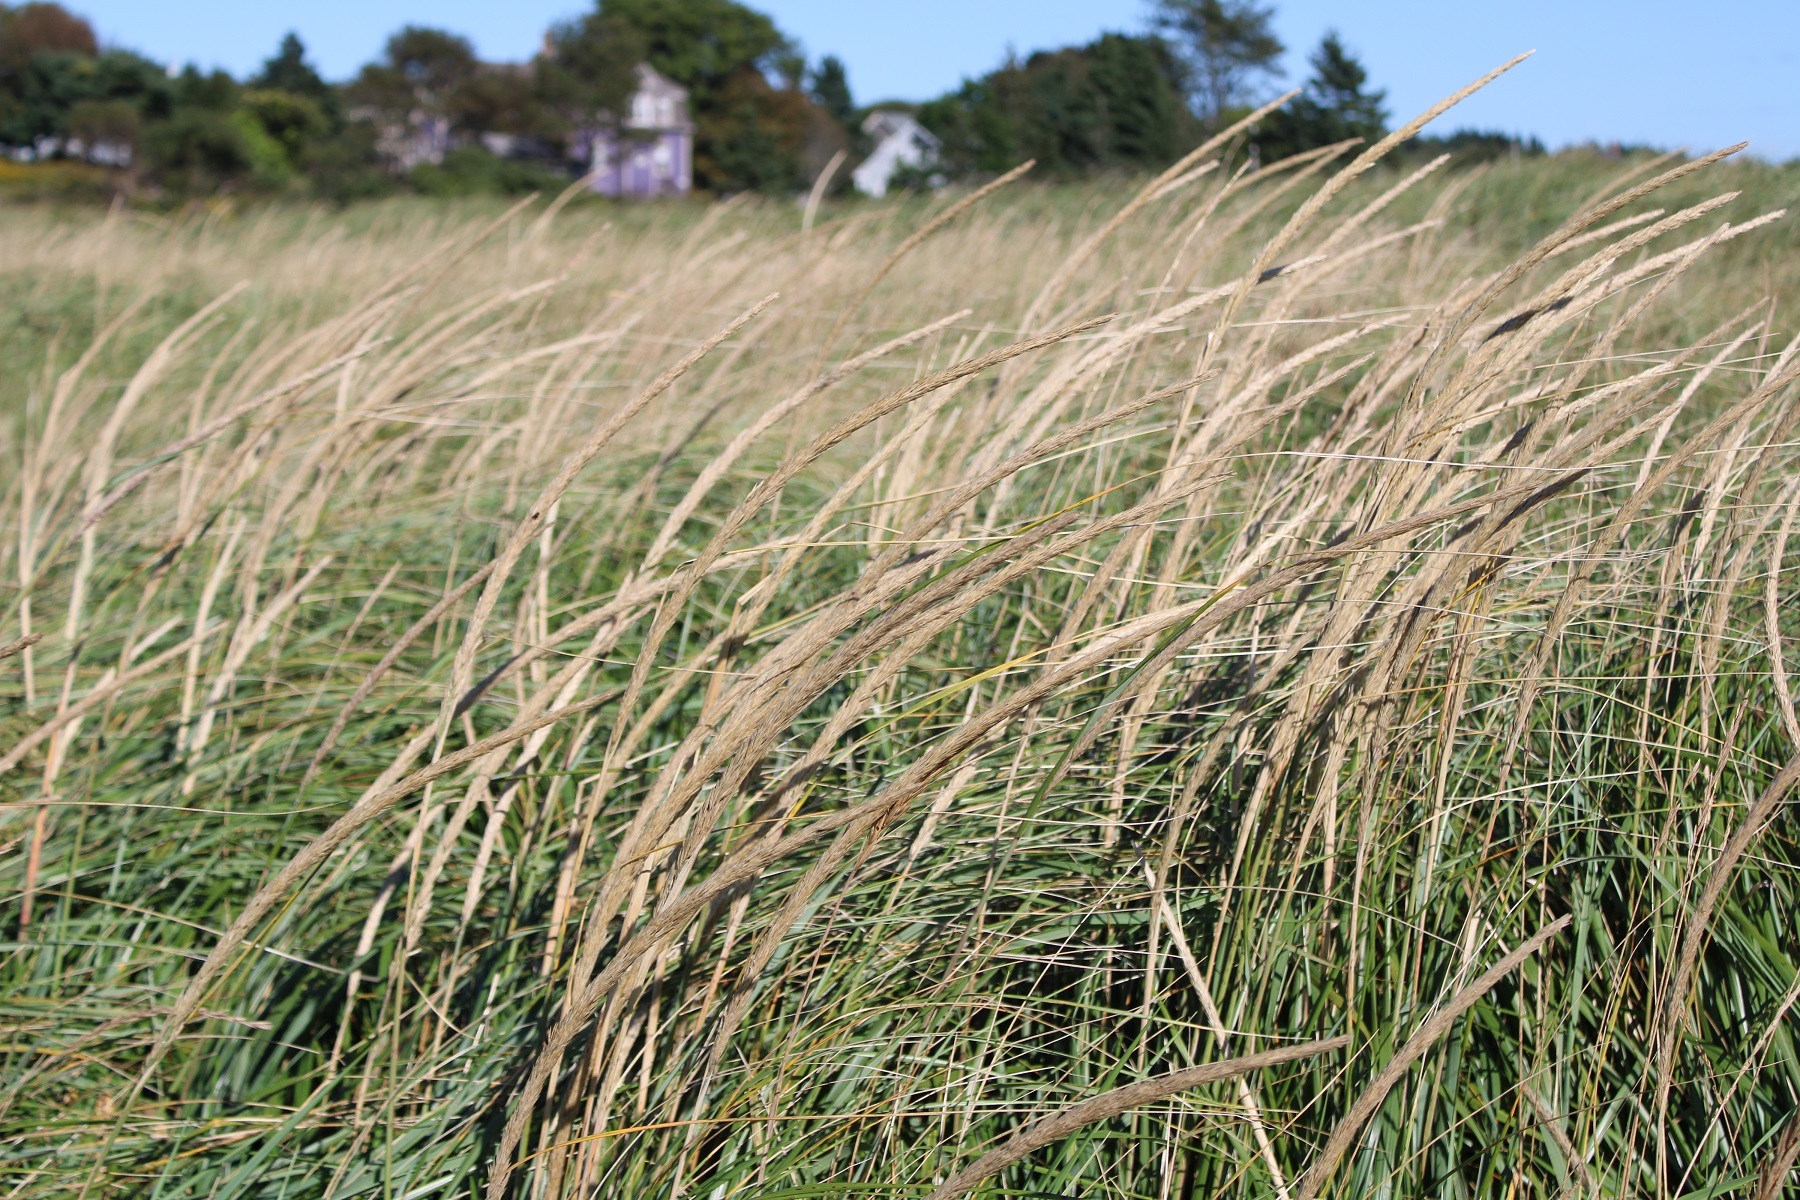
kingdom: Plantae
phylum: Tracheophyta
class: Liliopsida
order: Poales
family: Poaceae
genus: Calamagrostis
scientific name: Calamagrostis breviligulata
